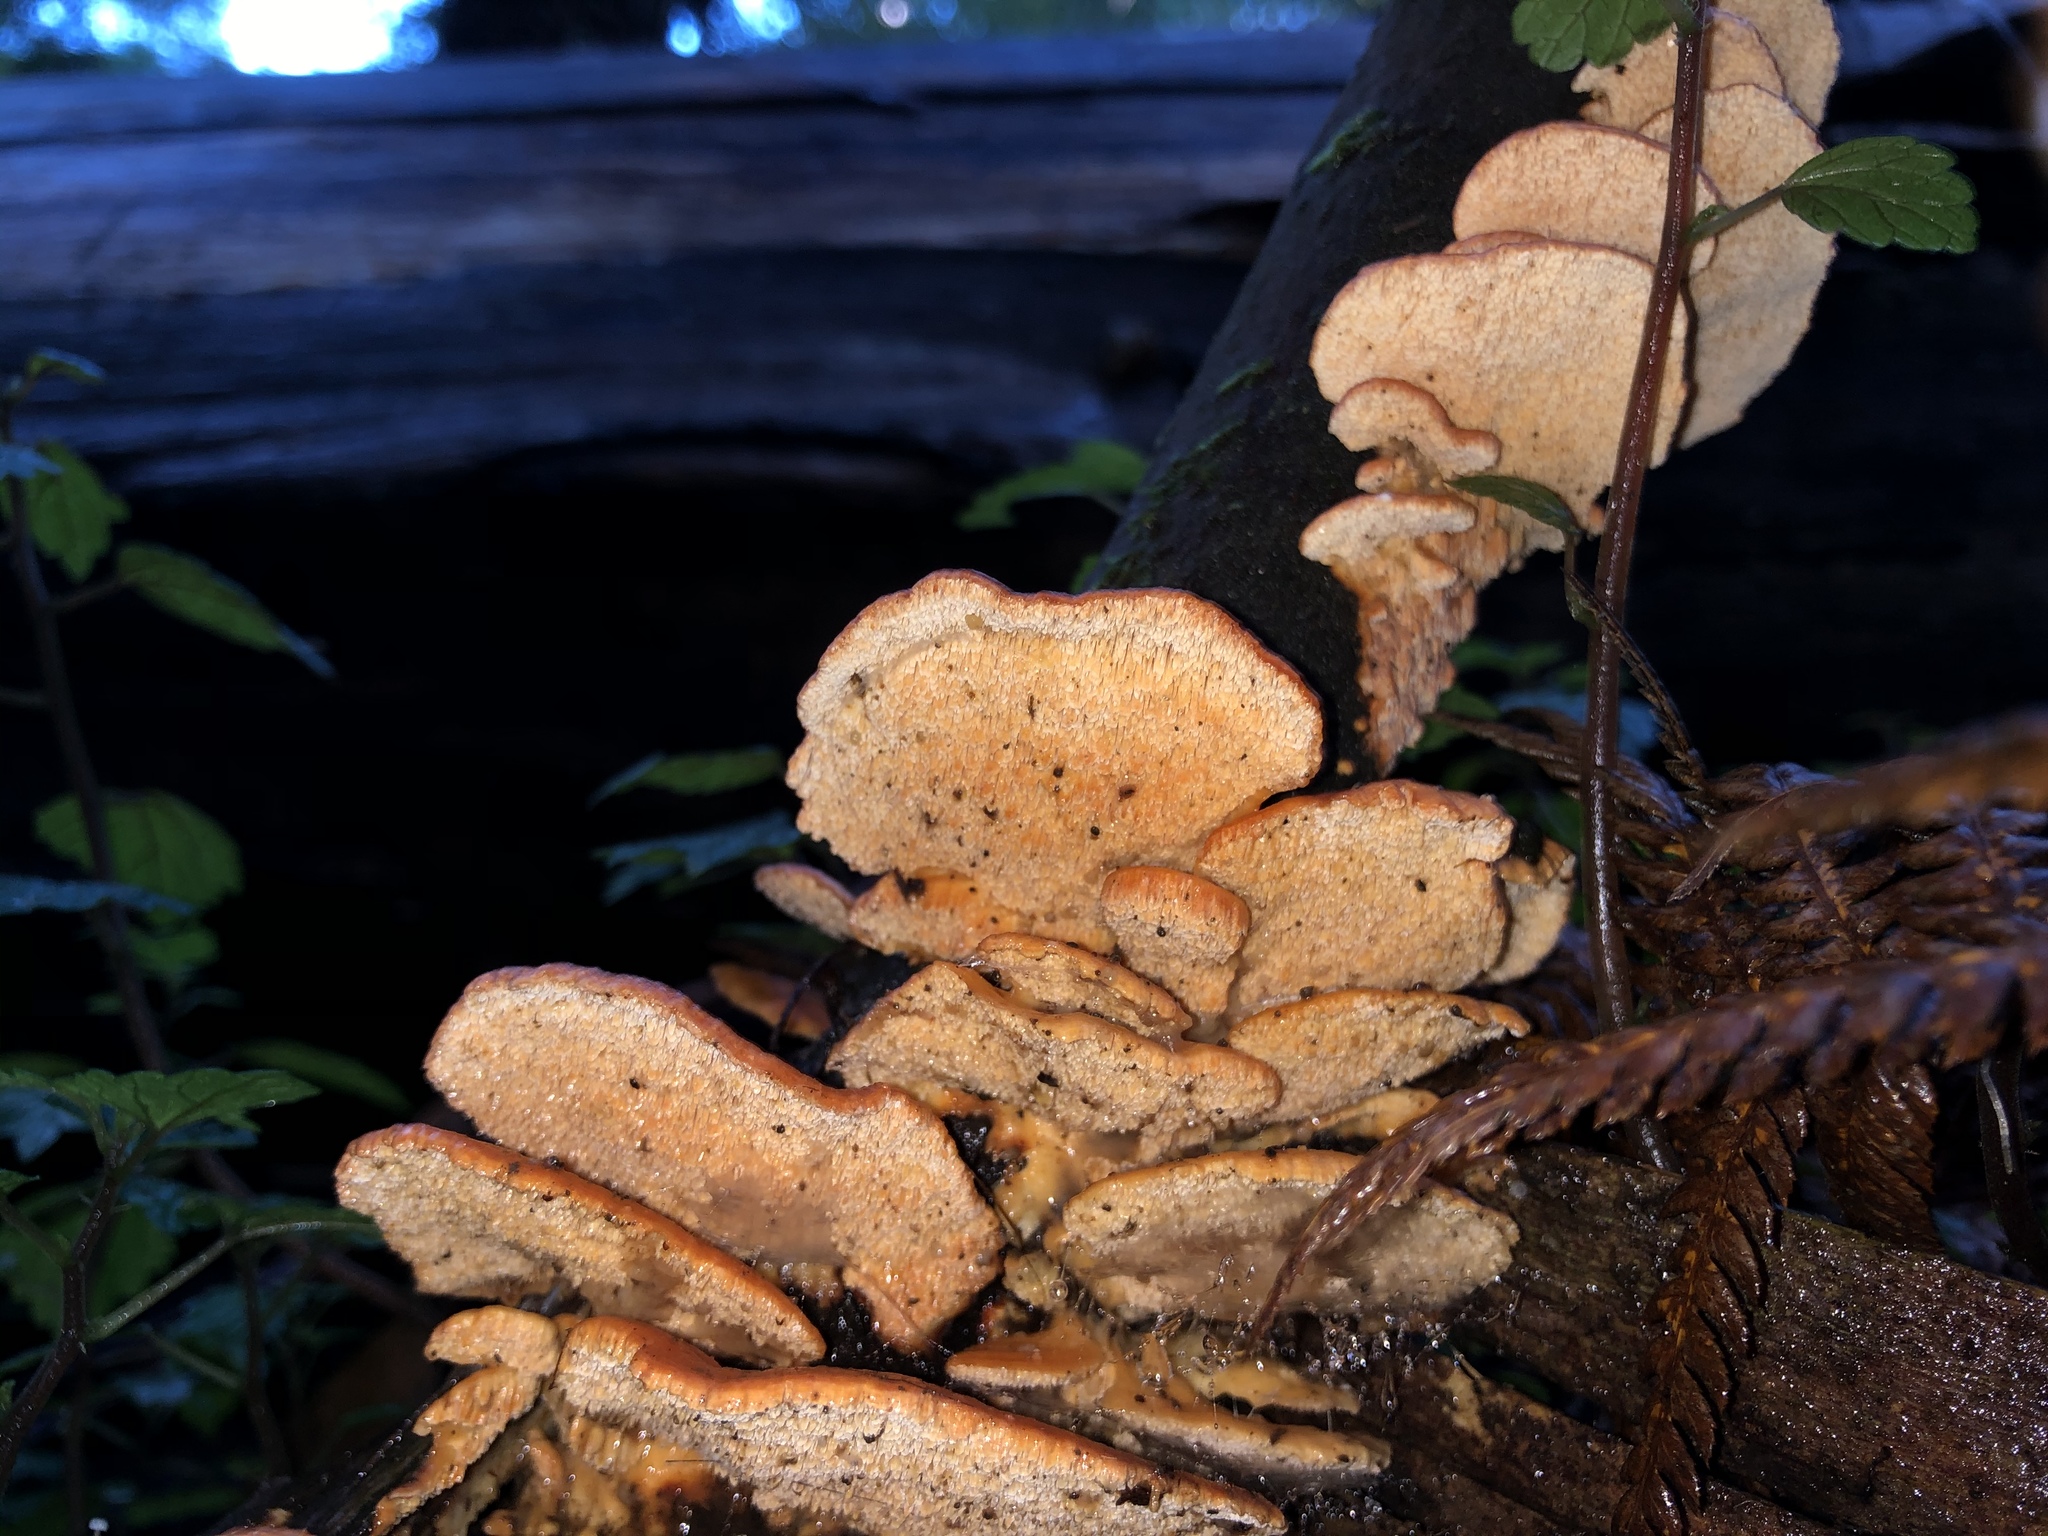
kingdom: Fungi
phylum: Basidiomycota
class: Agaricomycetes
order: Russulales
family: Stereaceae
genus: Stereum
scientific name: Stereum versicolor
